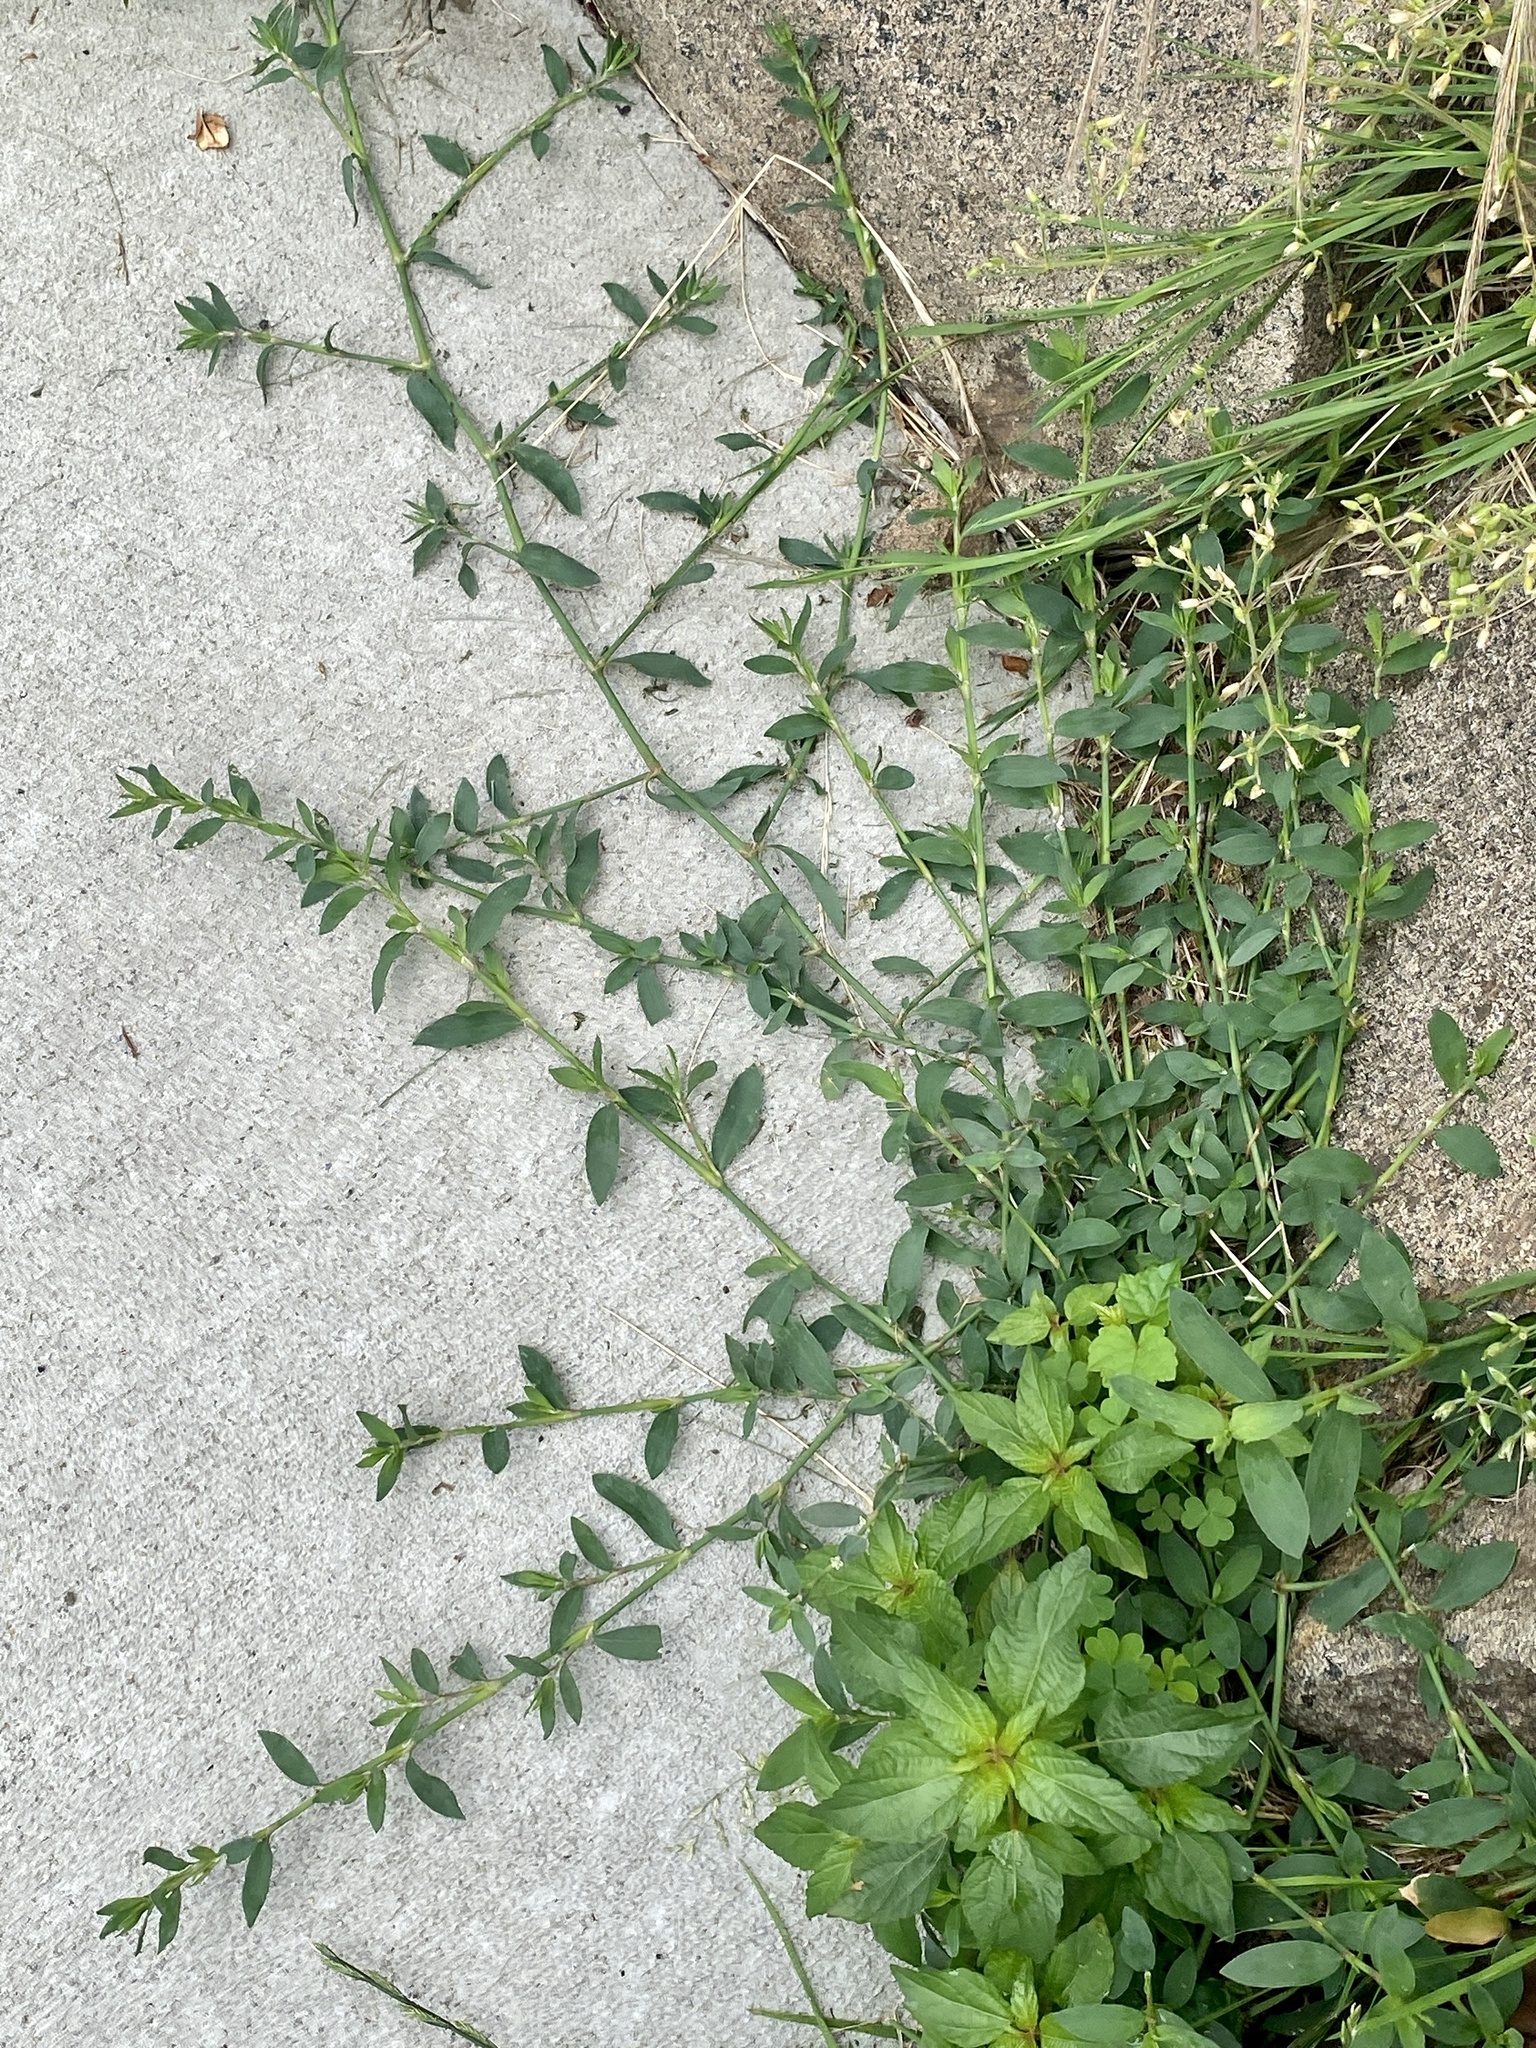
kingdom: Plantae
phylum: Tracheophyta
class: Magnoliopsida
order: Caryophyllales
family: Polygonaceae
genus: Polygonum
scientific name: Polygonum aviculare
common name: Prostrate knotweed
